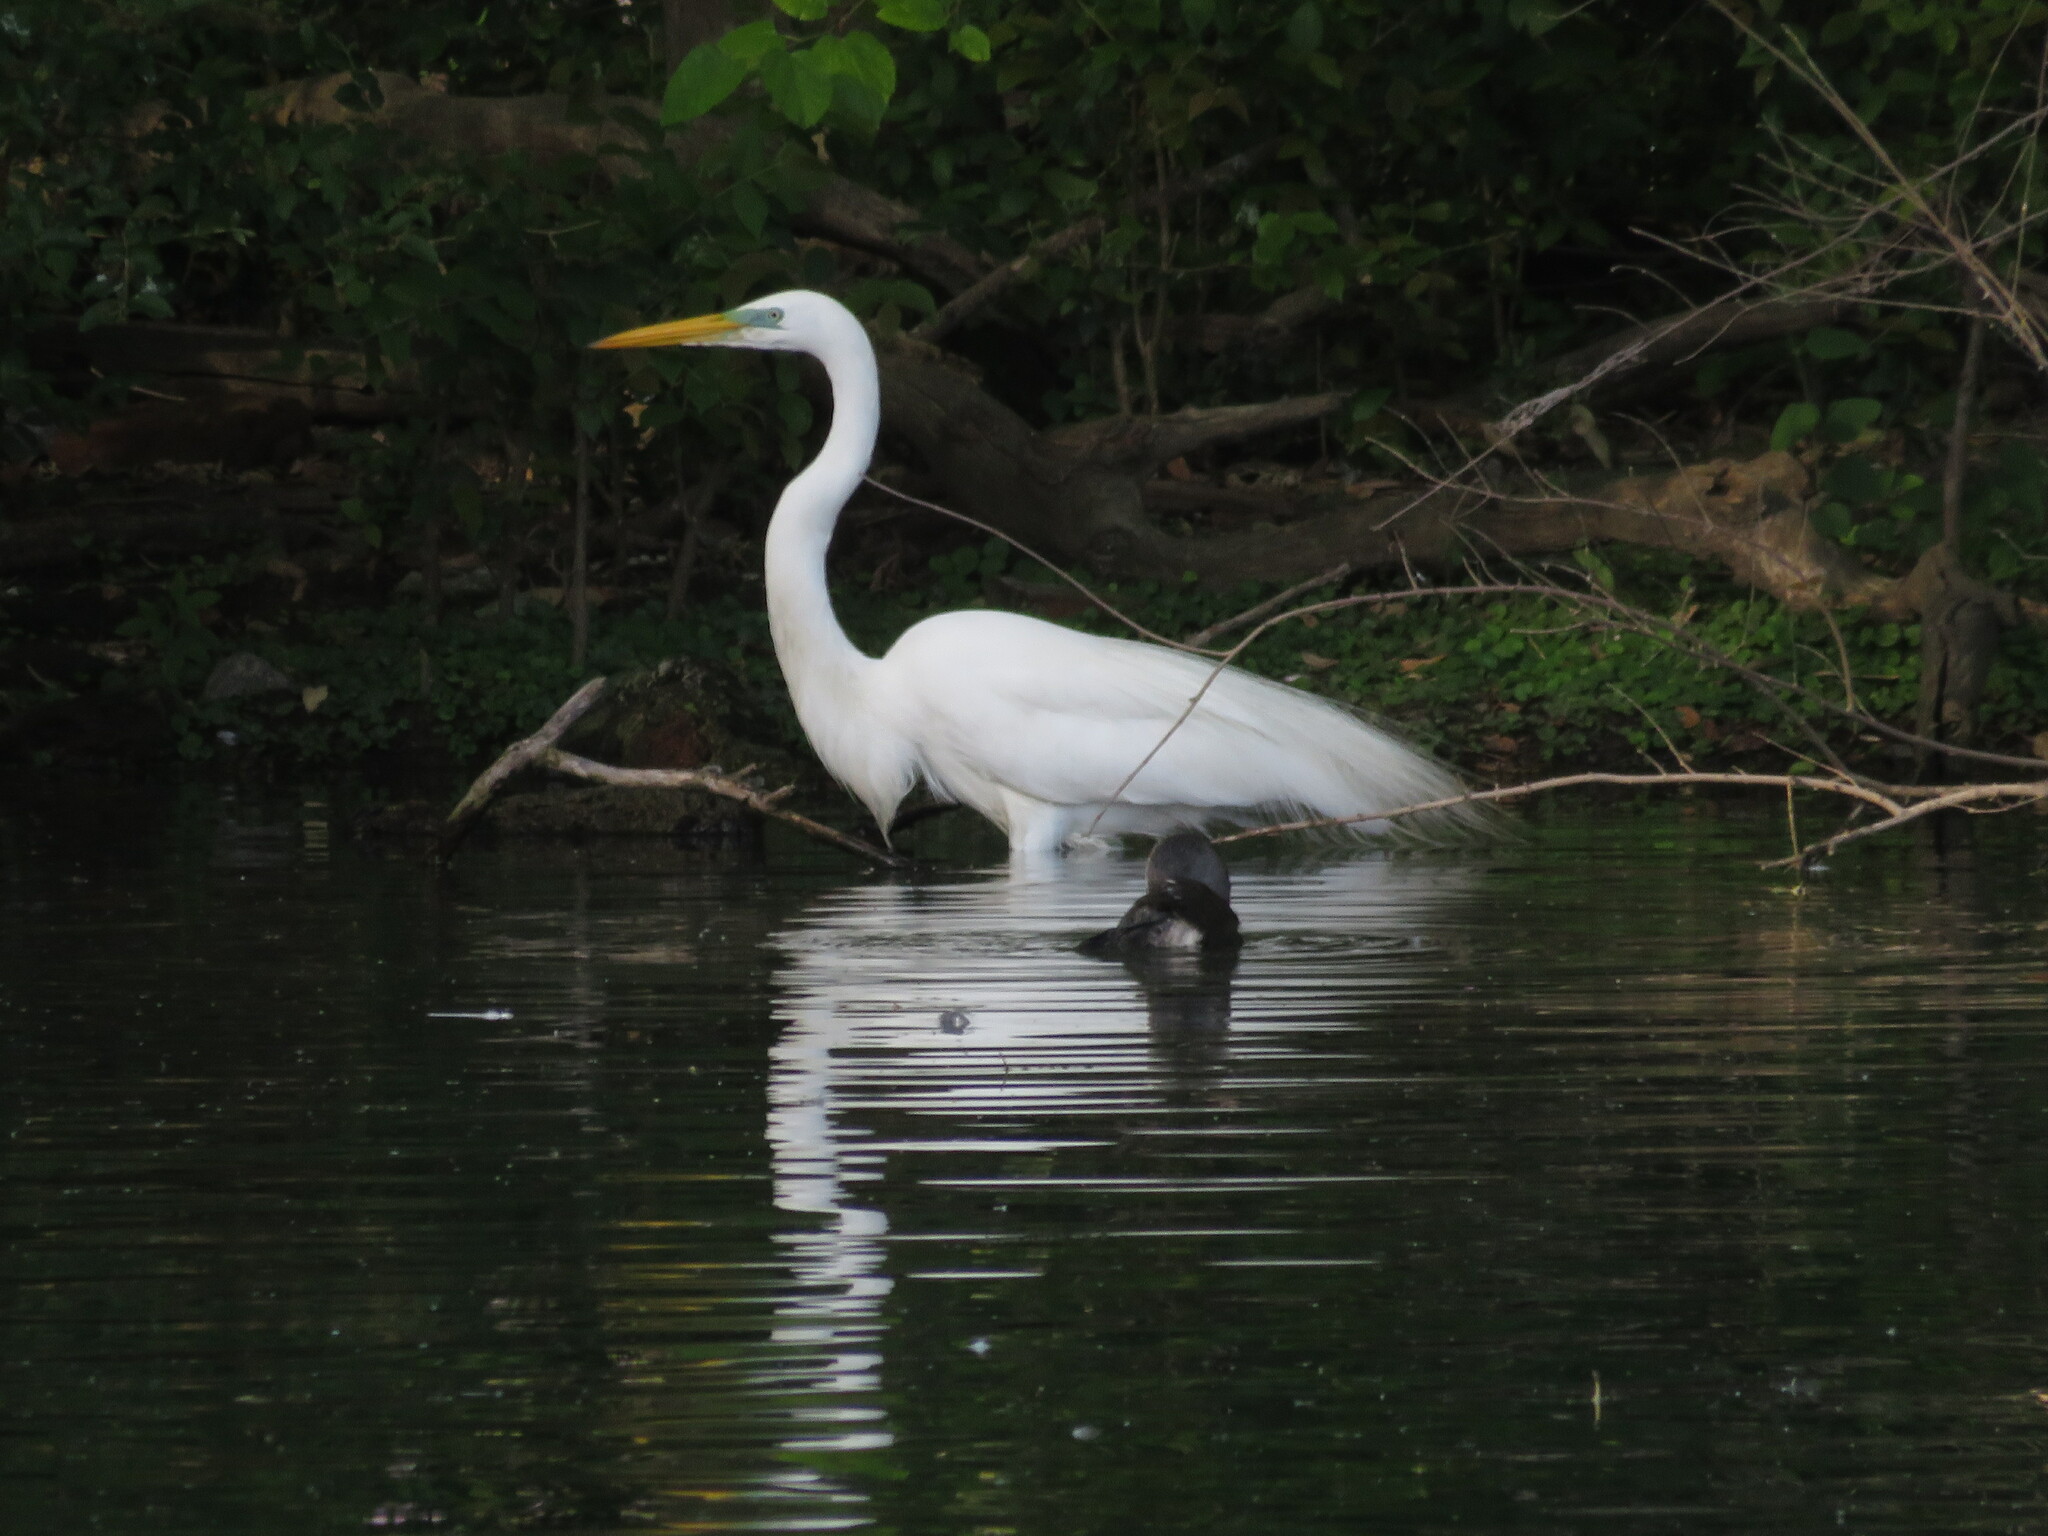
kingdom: Animalia
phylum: Chordata
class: Aves
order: Pelecaniformes
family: Ardeidae
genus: Ardea
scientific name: Ardea alba
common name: Great egret
